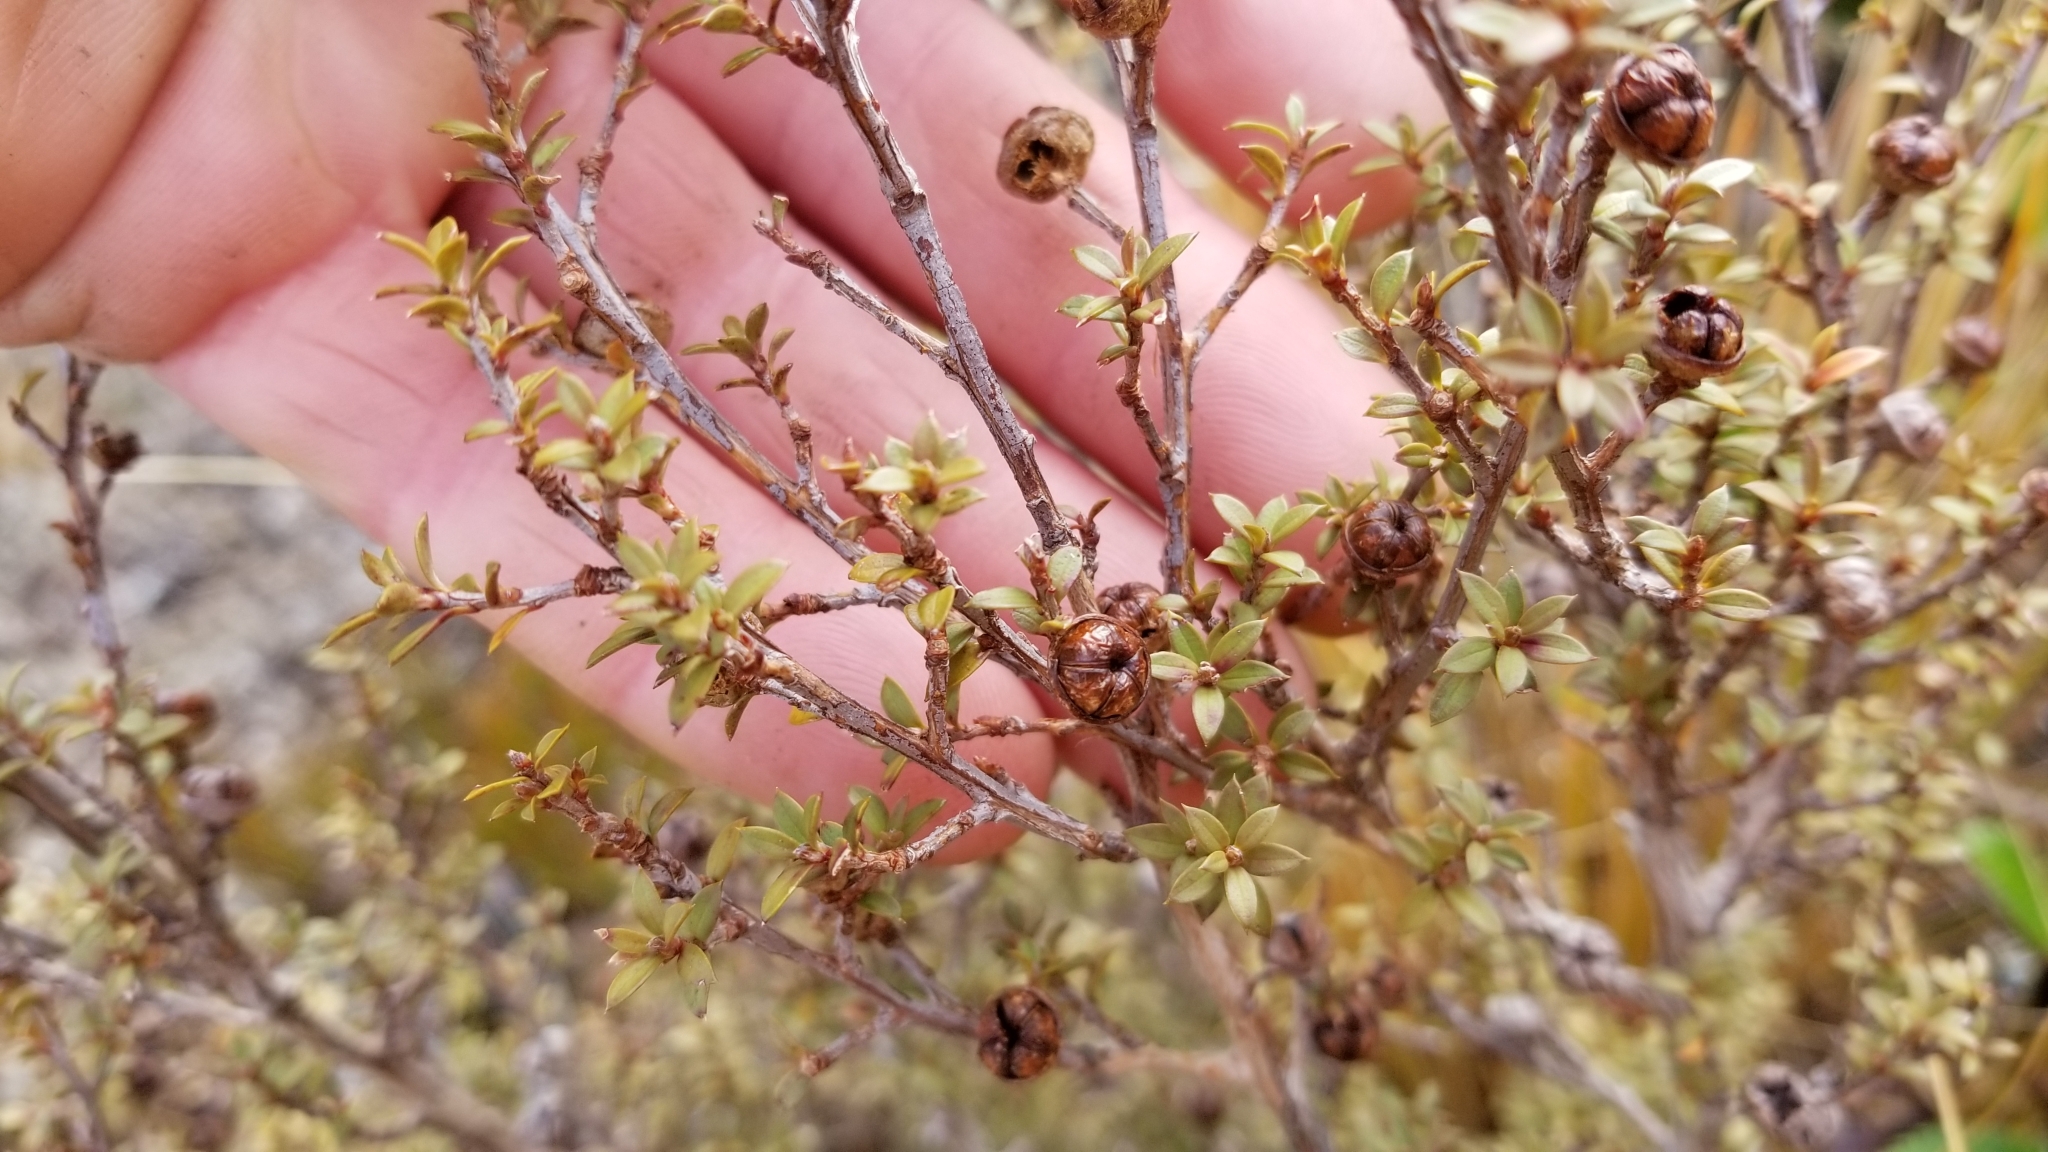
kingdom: Plantae
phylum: Tracheophyta
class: Magnoliopsida
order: Myrtales
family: Myrtaceae
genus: Leptospermum
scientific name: Leptospermum scoparium
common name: Broom tea-tree
